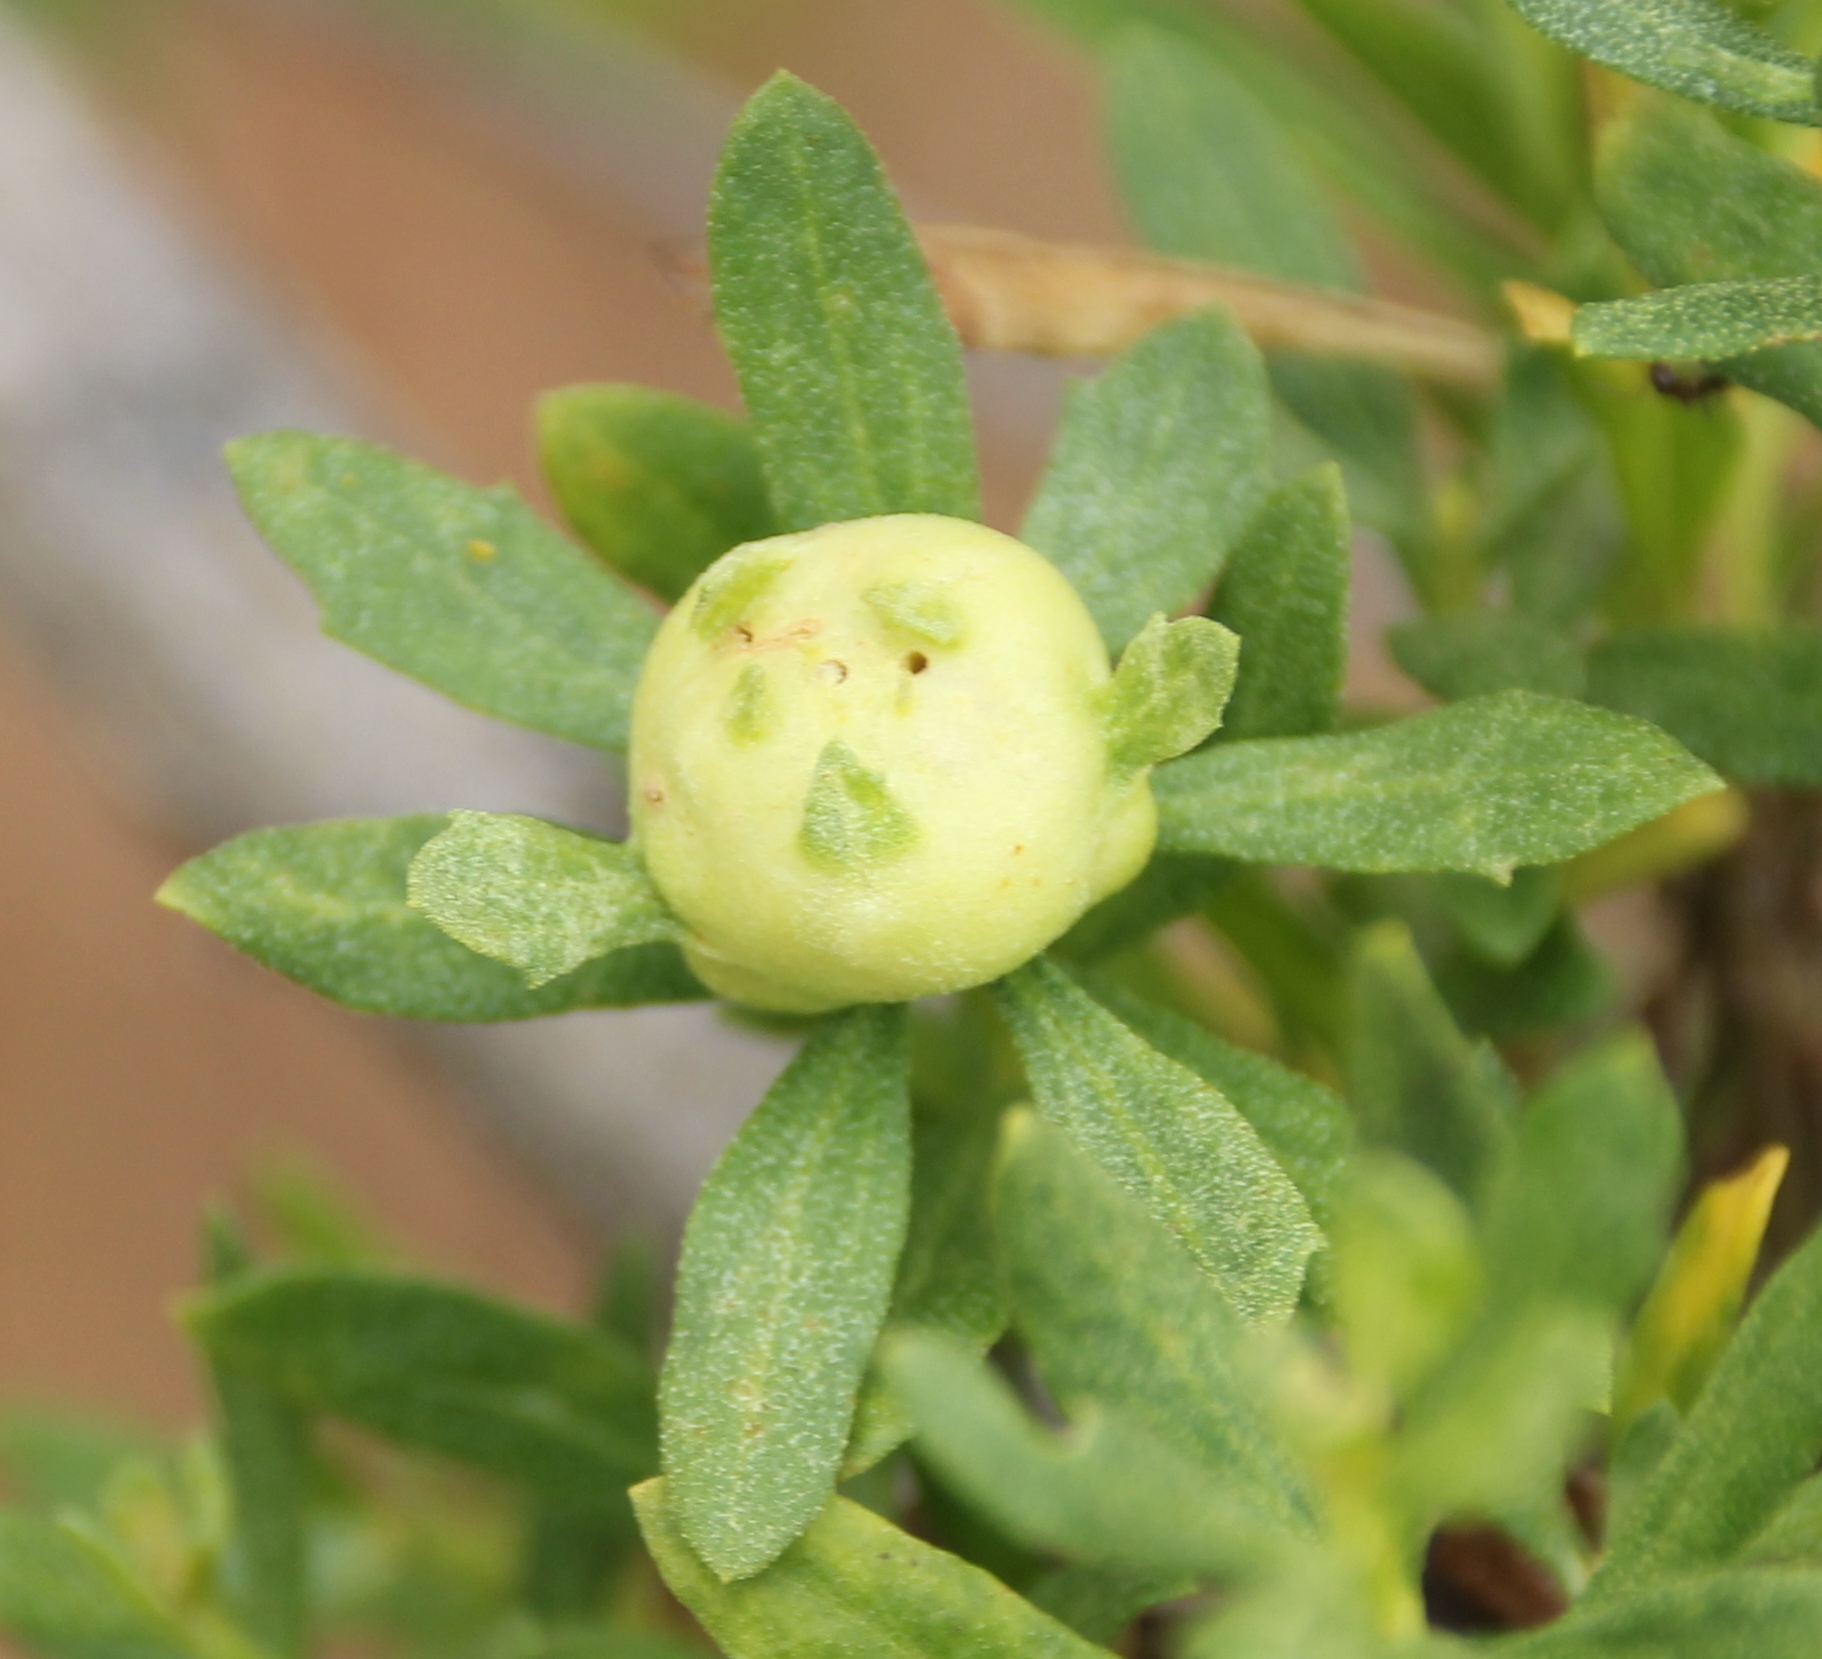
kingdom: Animalia
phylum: Arthropoda
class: Insecta
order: Diptera
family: Cecidomyiidae
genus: Rhopalomyia
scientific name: Rhopalomyia californica
